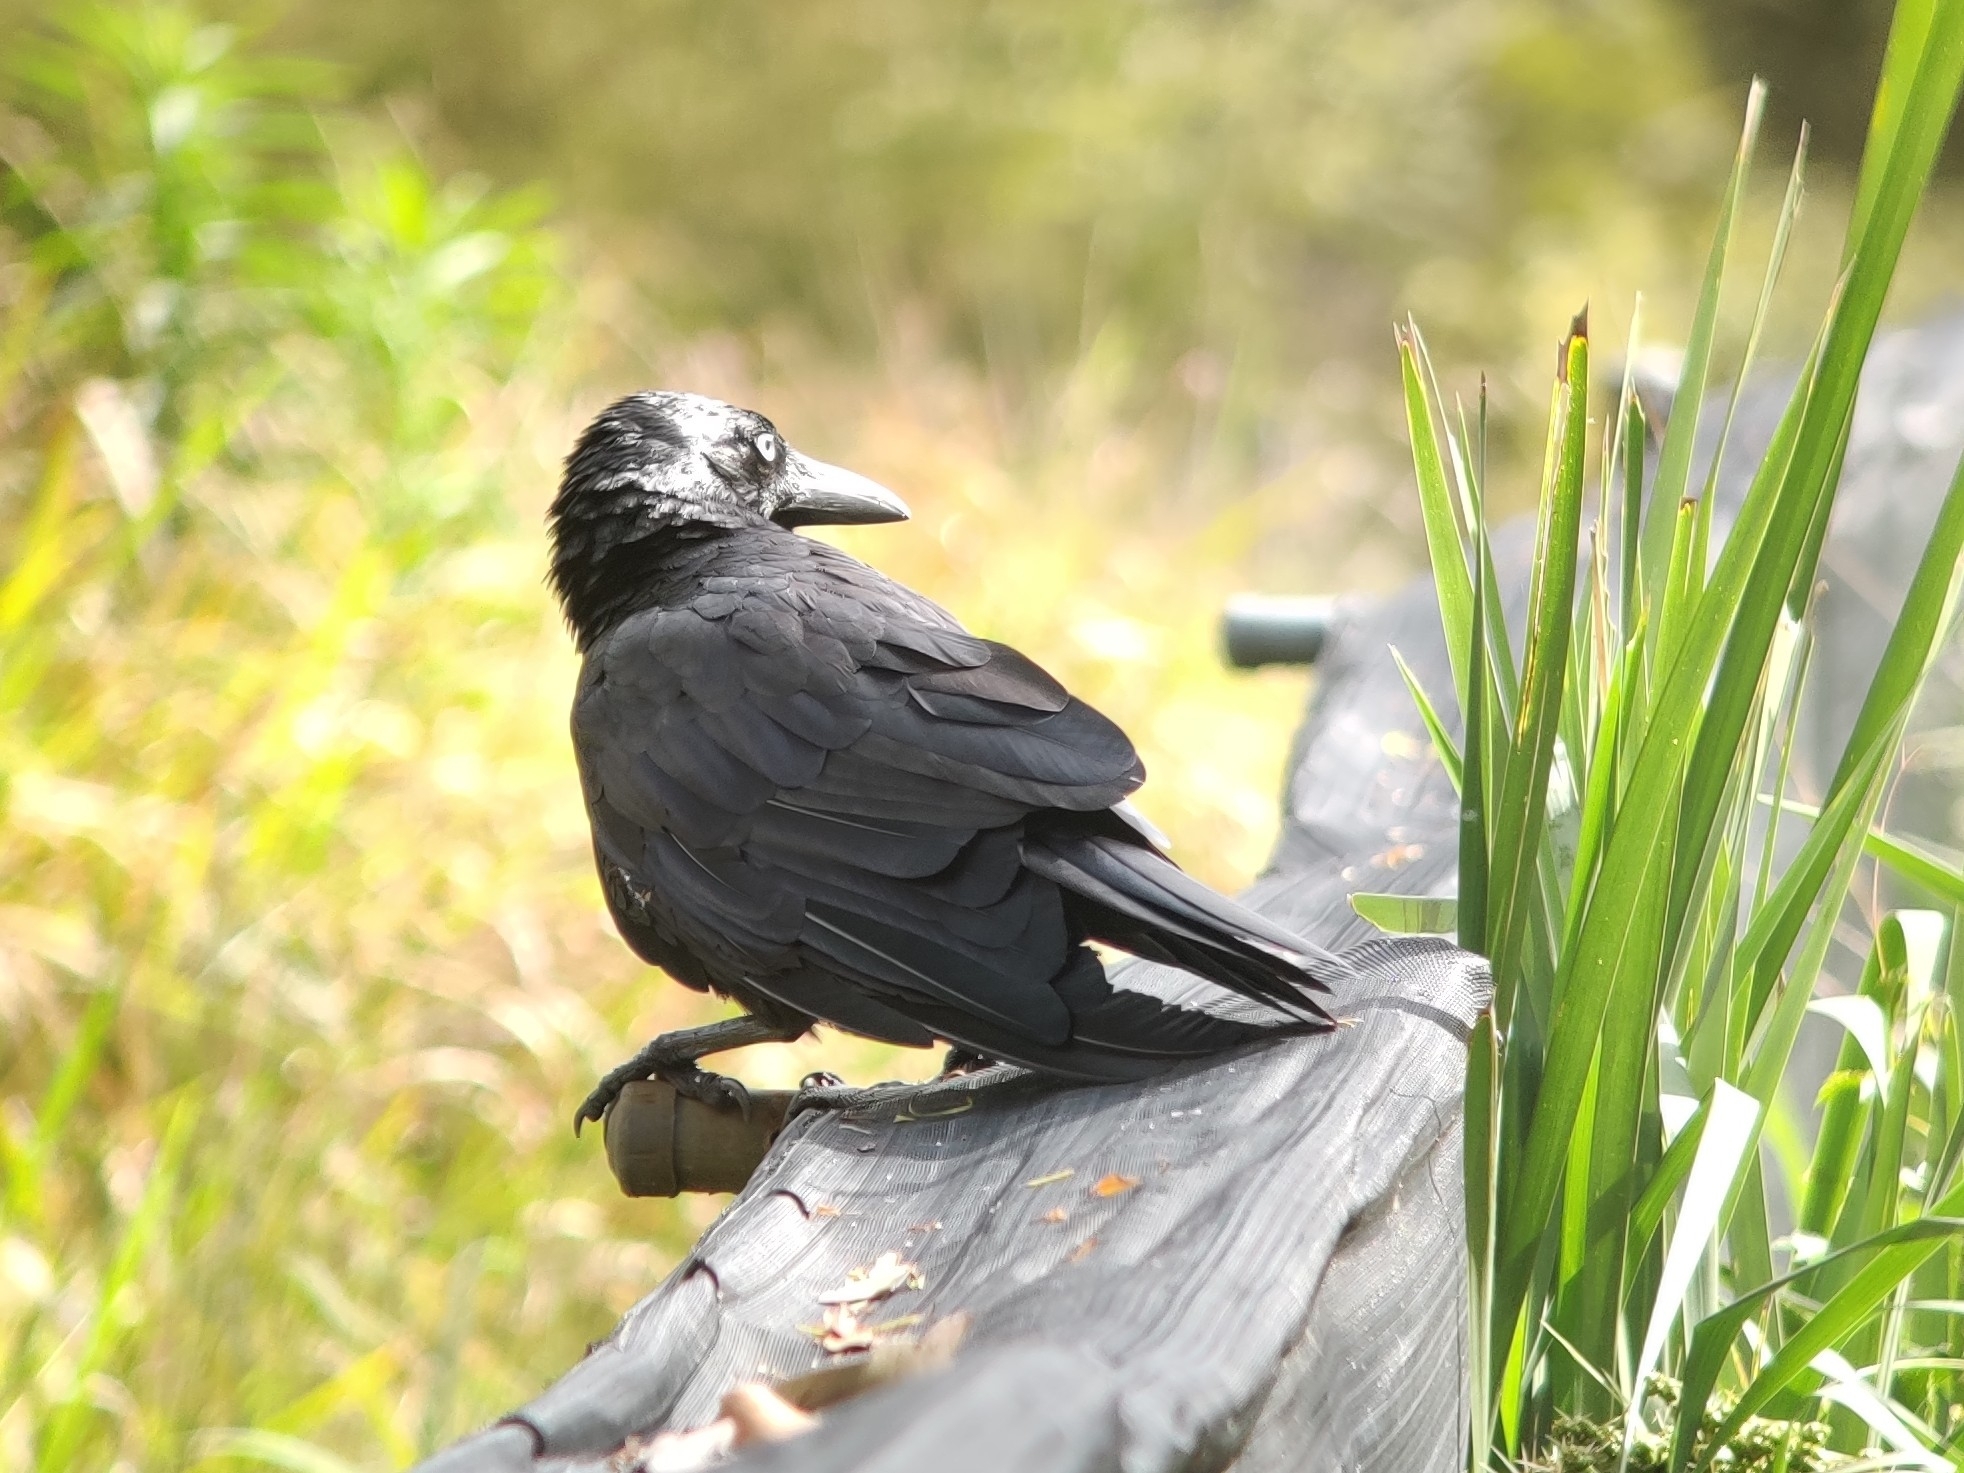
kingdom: Animalia
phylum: Chordata
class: Aves
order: Passeriformes
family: Corvidae
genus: Corvus
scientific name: Corvus coronoides
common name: Australian raven
